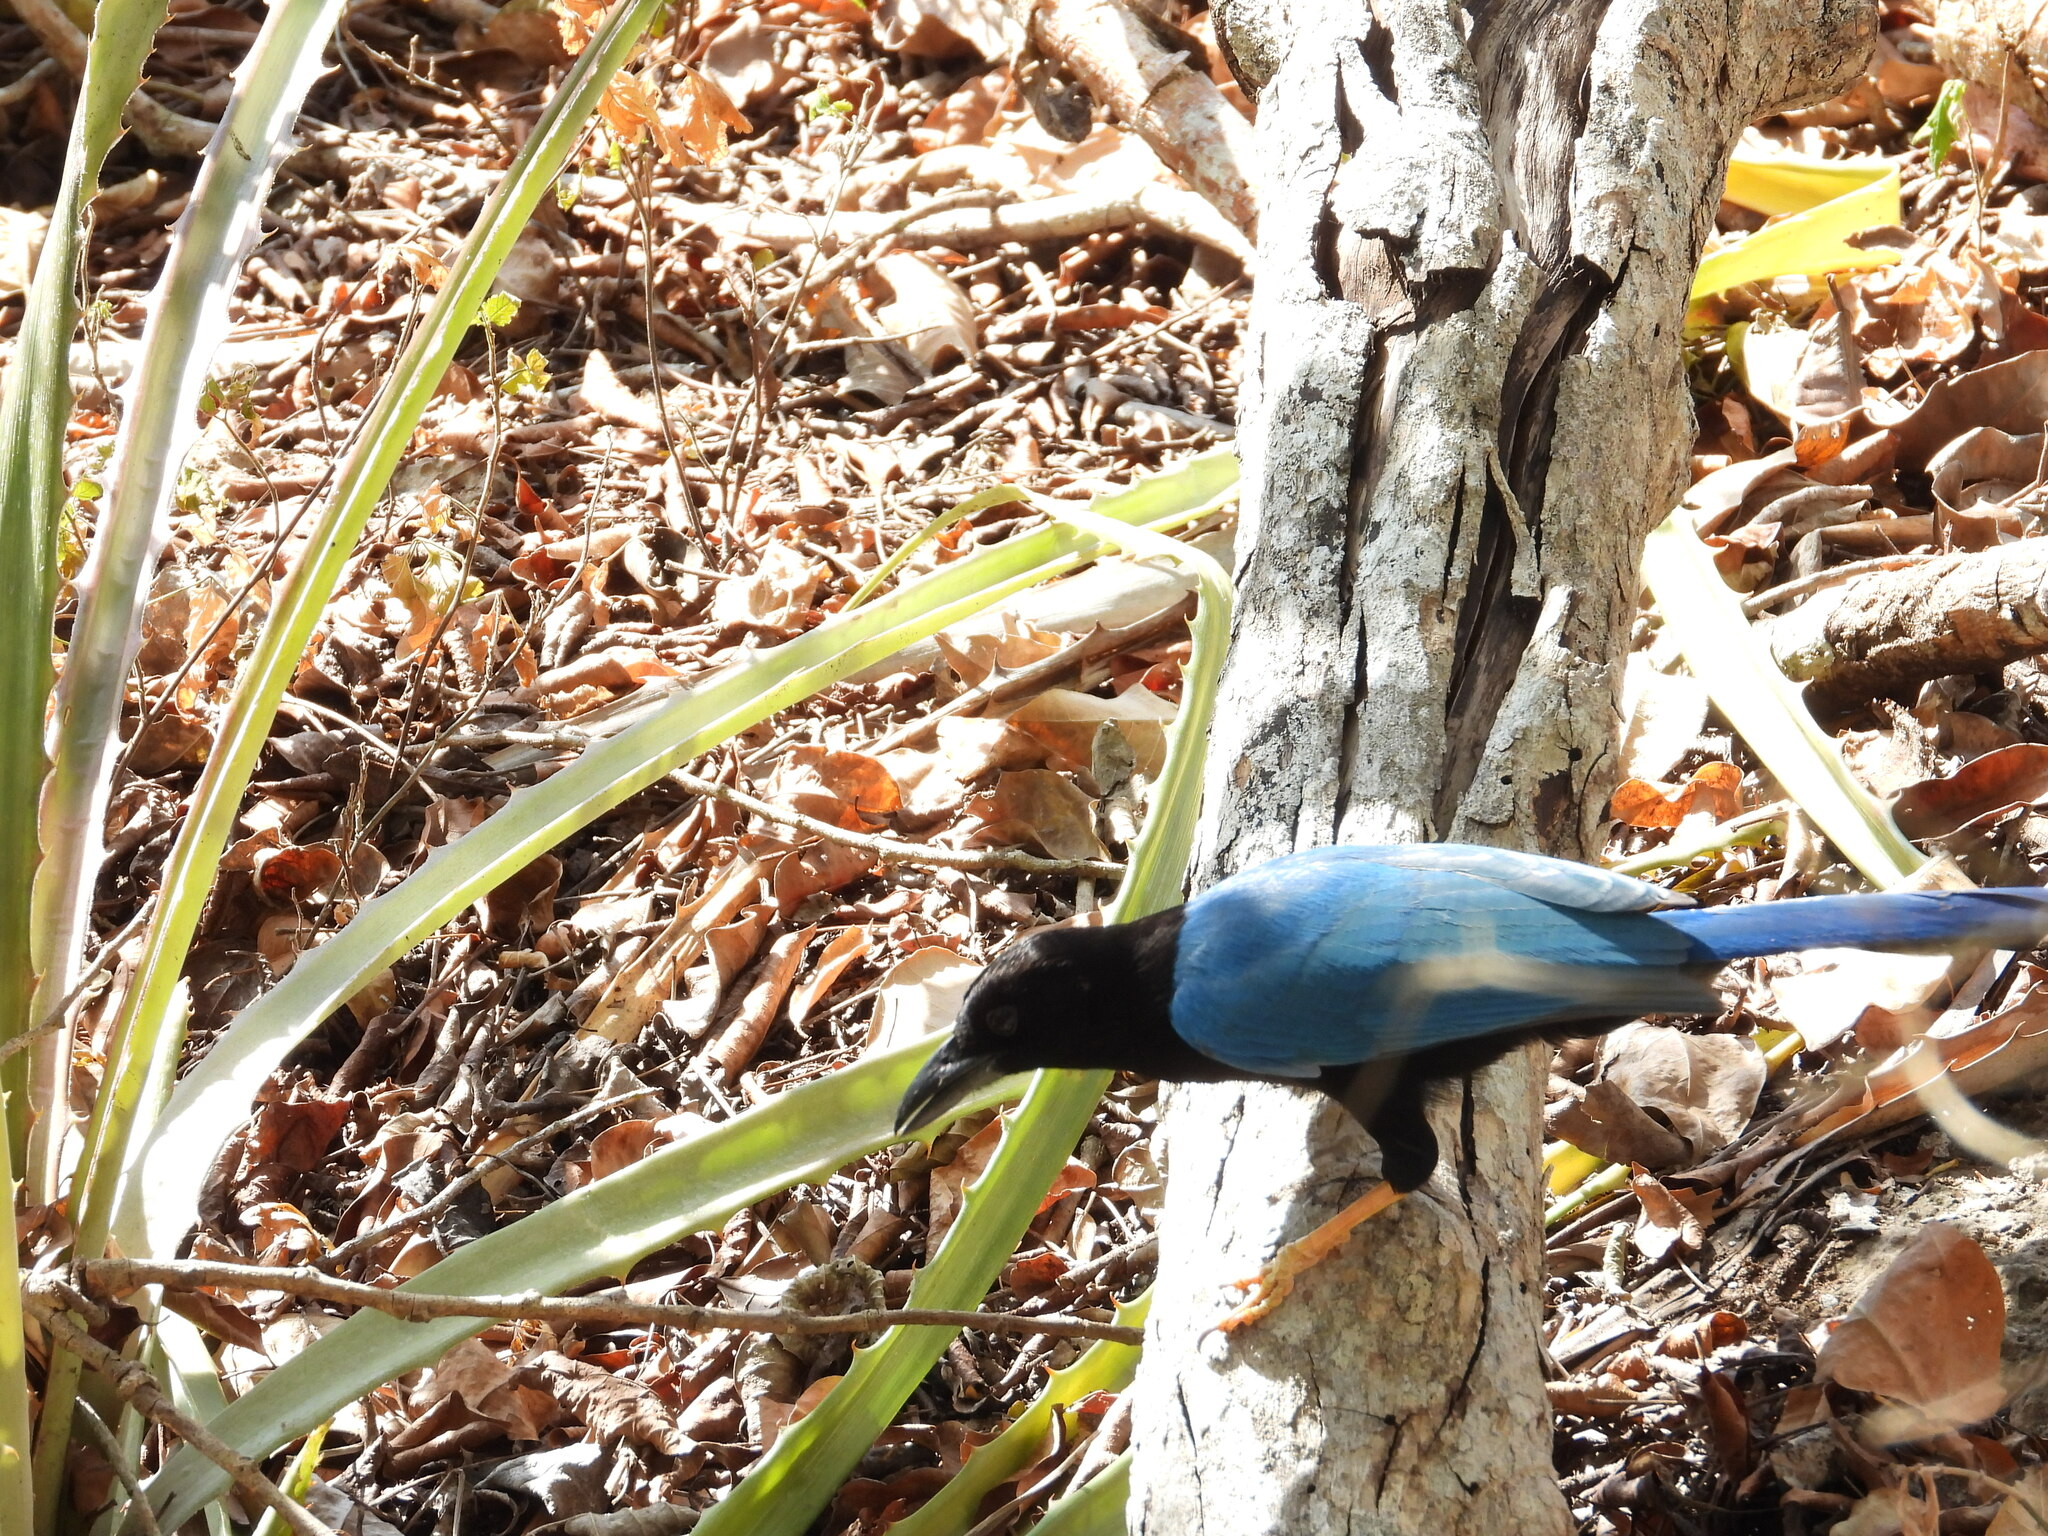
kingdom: Animalia
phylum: Chordata
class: Aves
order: Passeriformes
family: Corvidae
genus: Cyanocorax
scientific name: Cyanocorax yucatanicus
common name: Yucatan jay
